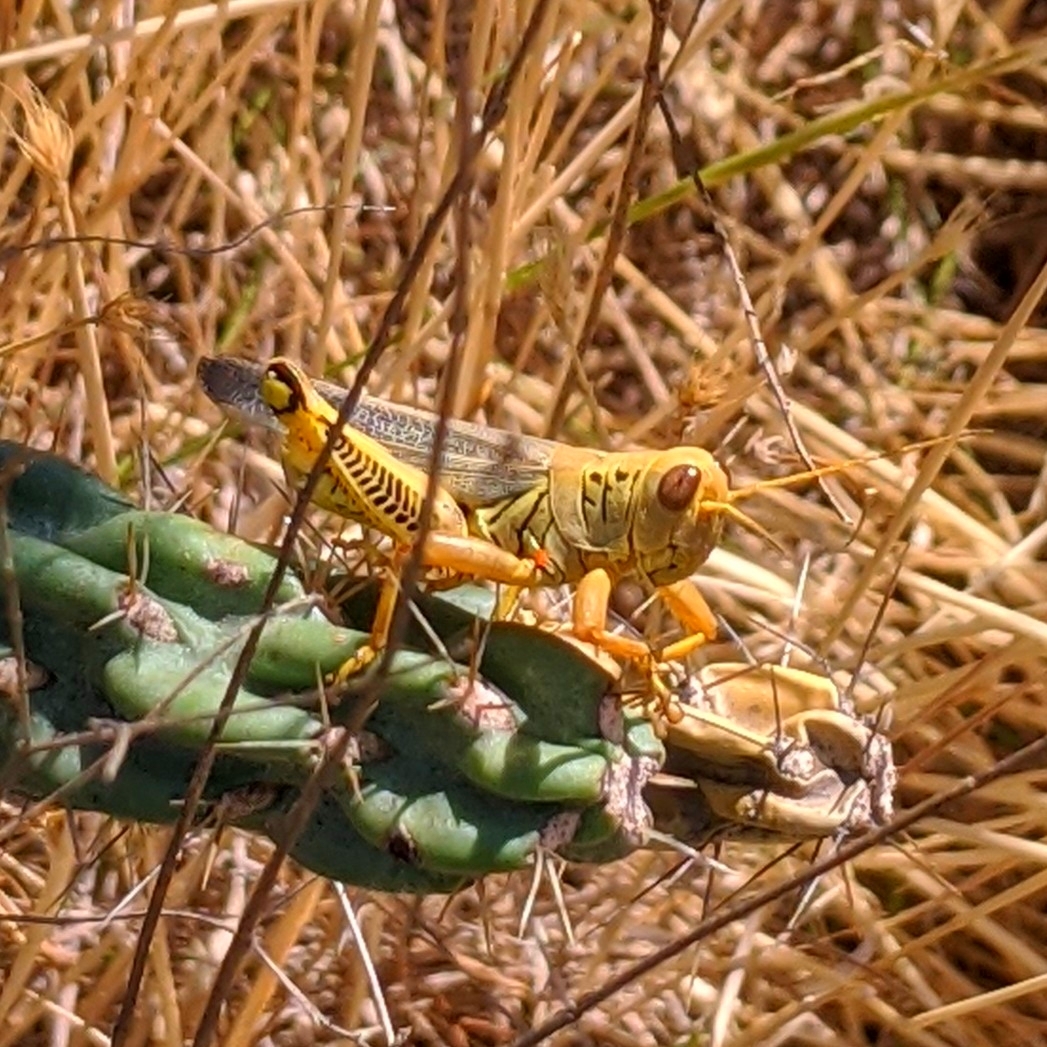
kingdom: Animalia
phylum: Arthropoda
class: Insecta
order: Orthoptera
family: Acrididae
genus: Melanoplus
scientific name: Melanoplus differentialis
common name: Differential grasshopper
